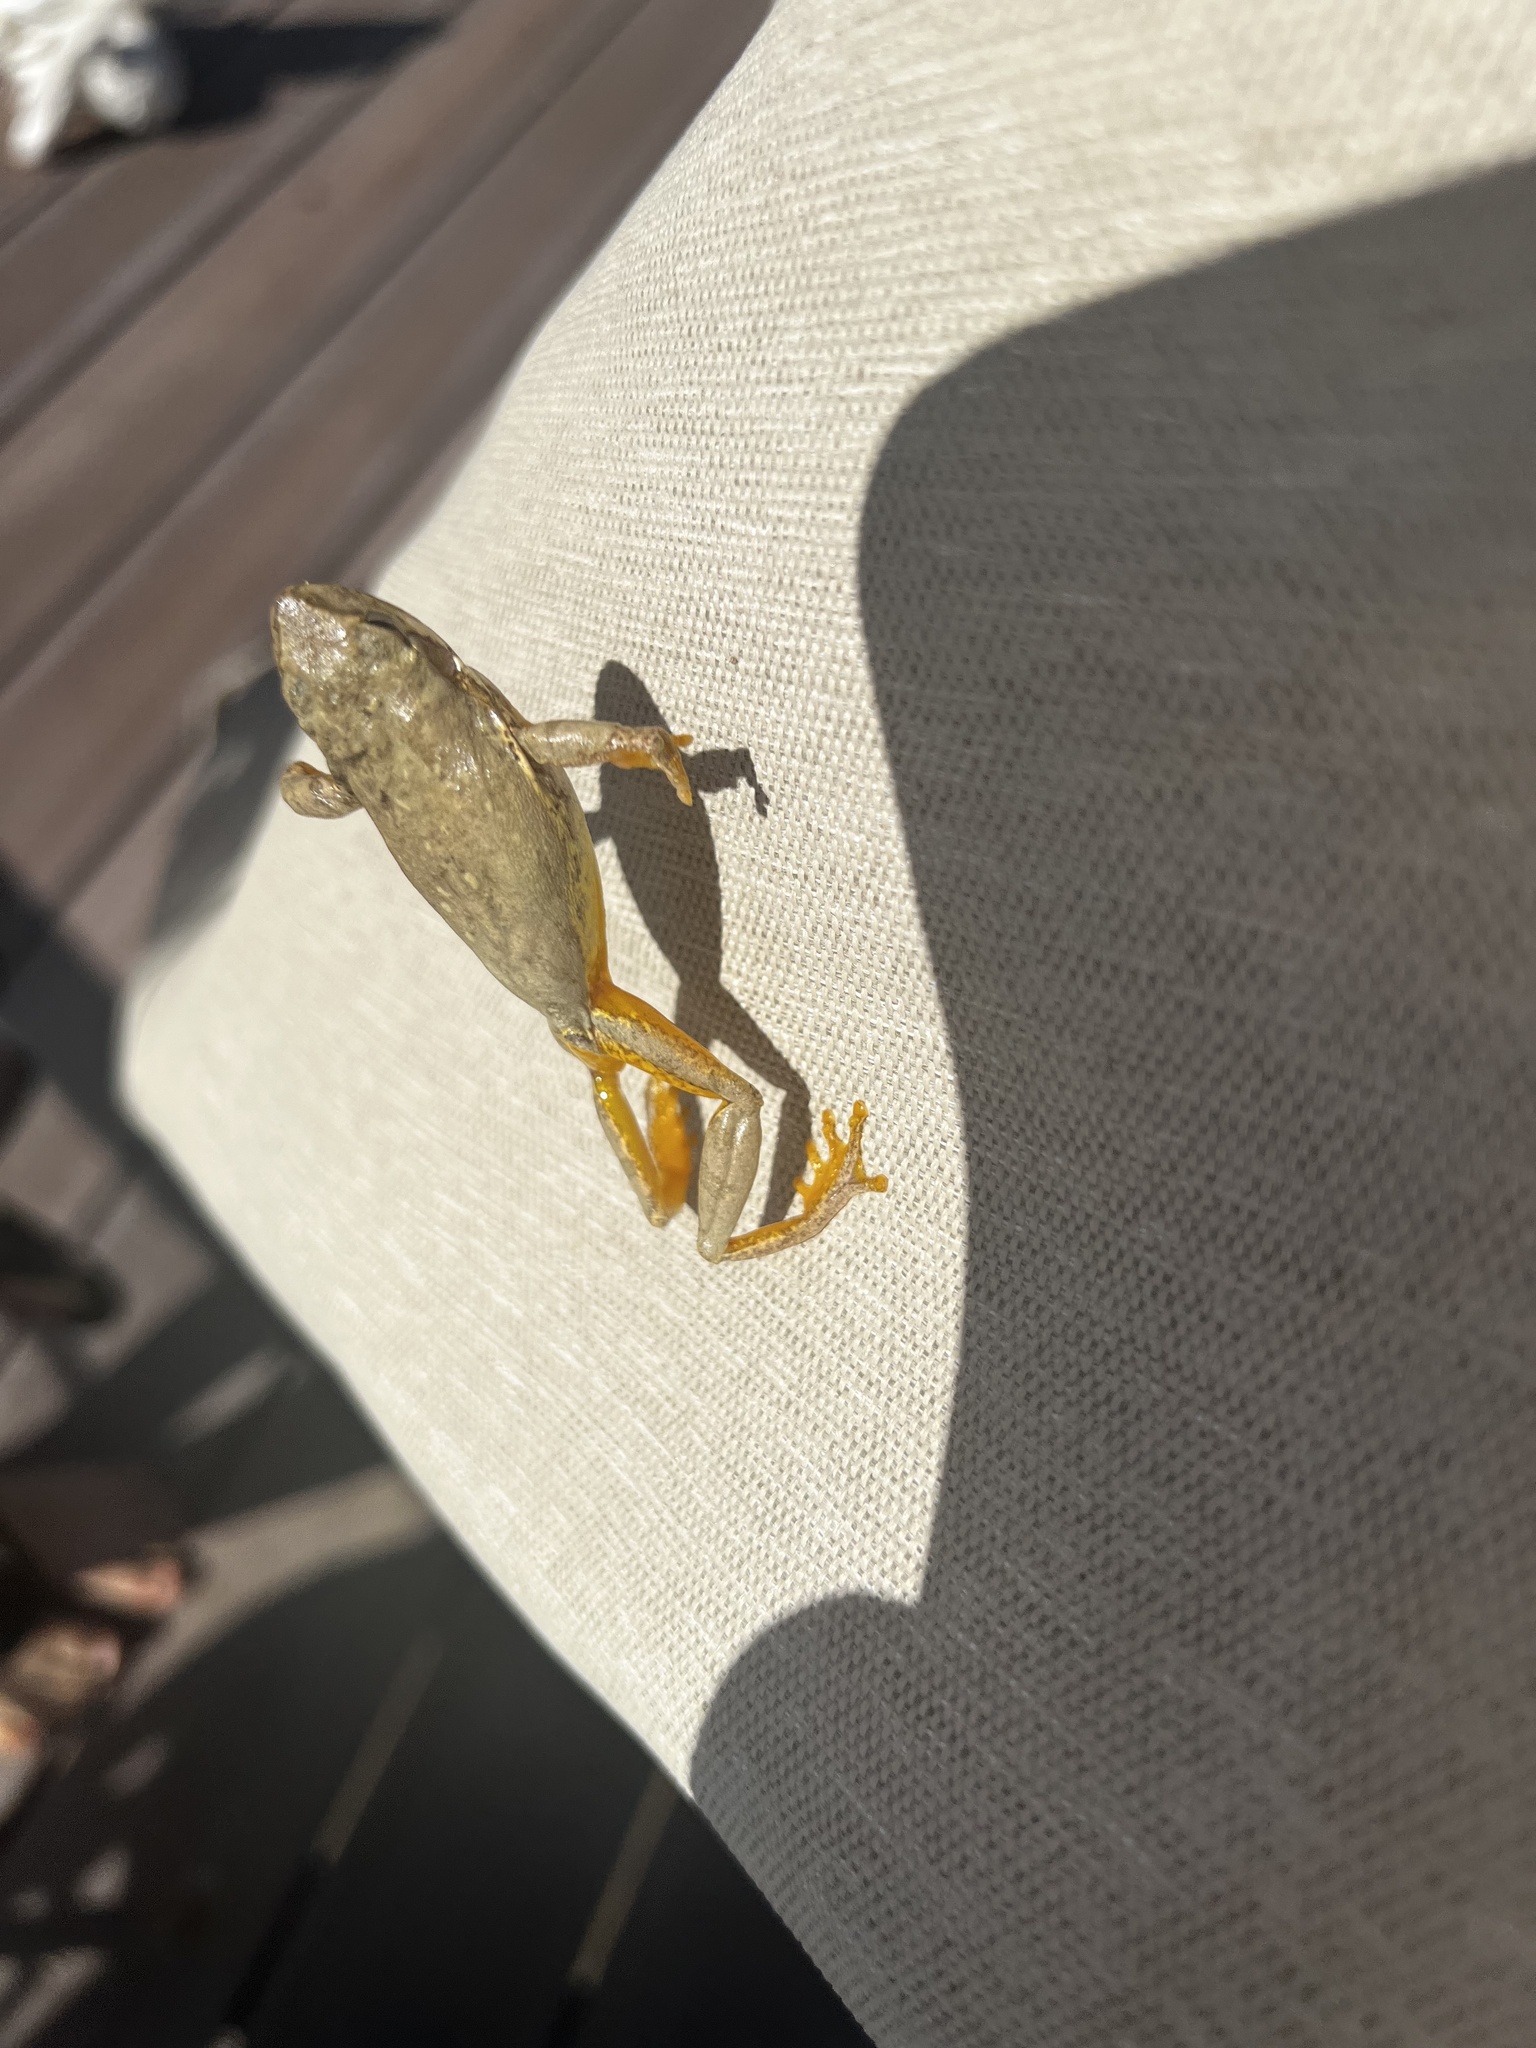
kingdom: Animalia
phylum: Chordata
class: Amphibia
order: Anura
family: Hylidae
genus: Dryophytes
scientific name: Dryophytes squirellus
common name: Squirrel treefrog
